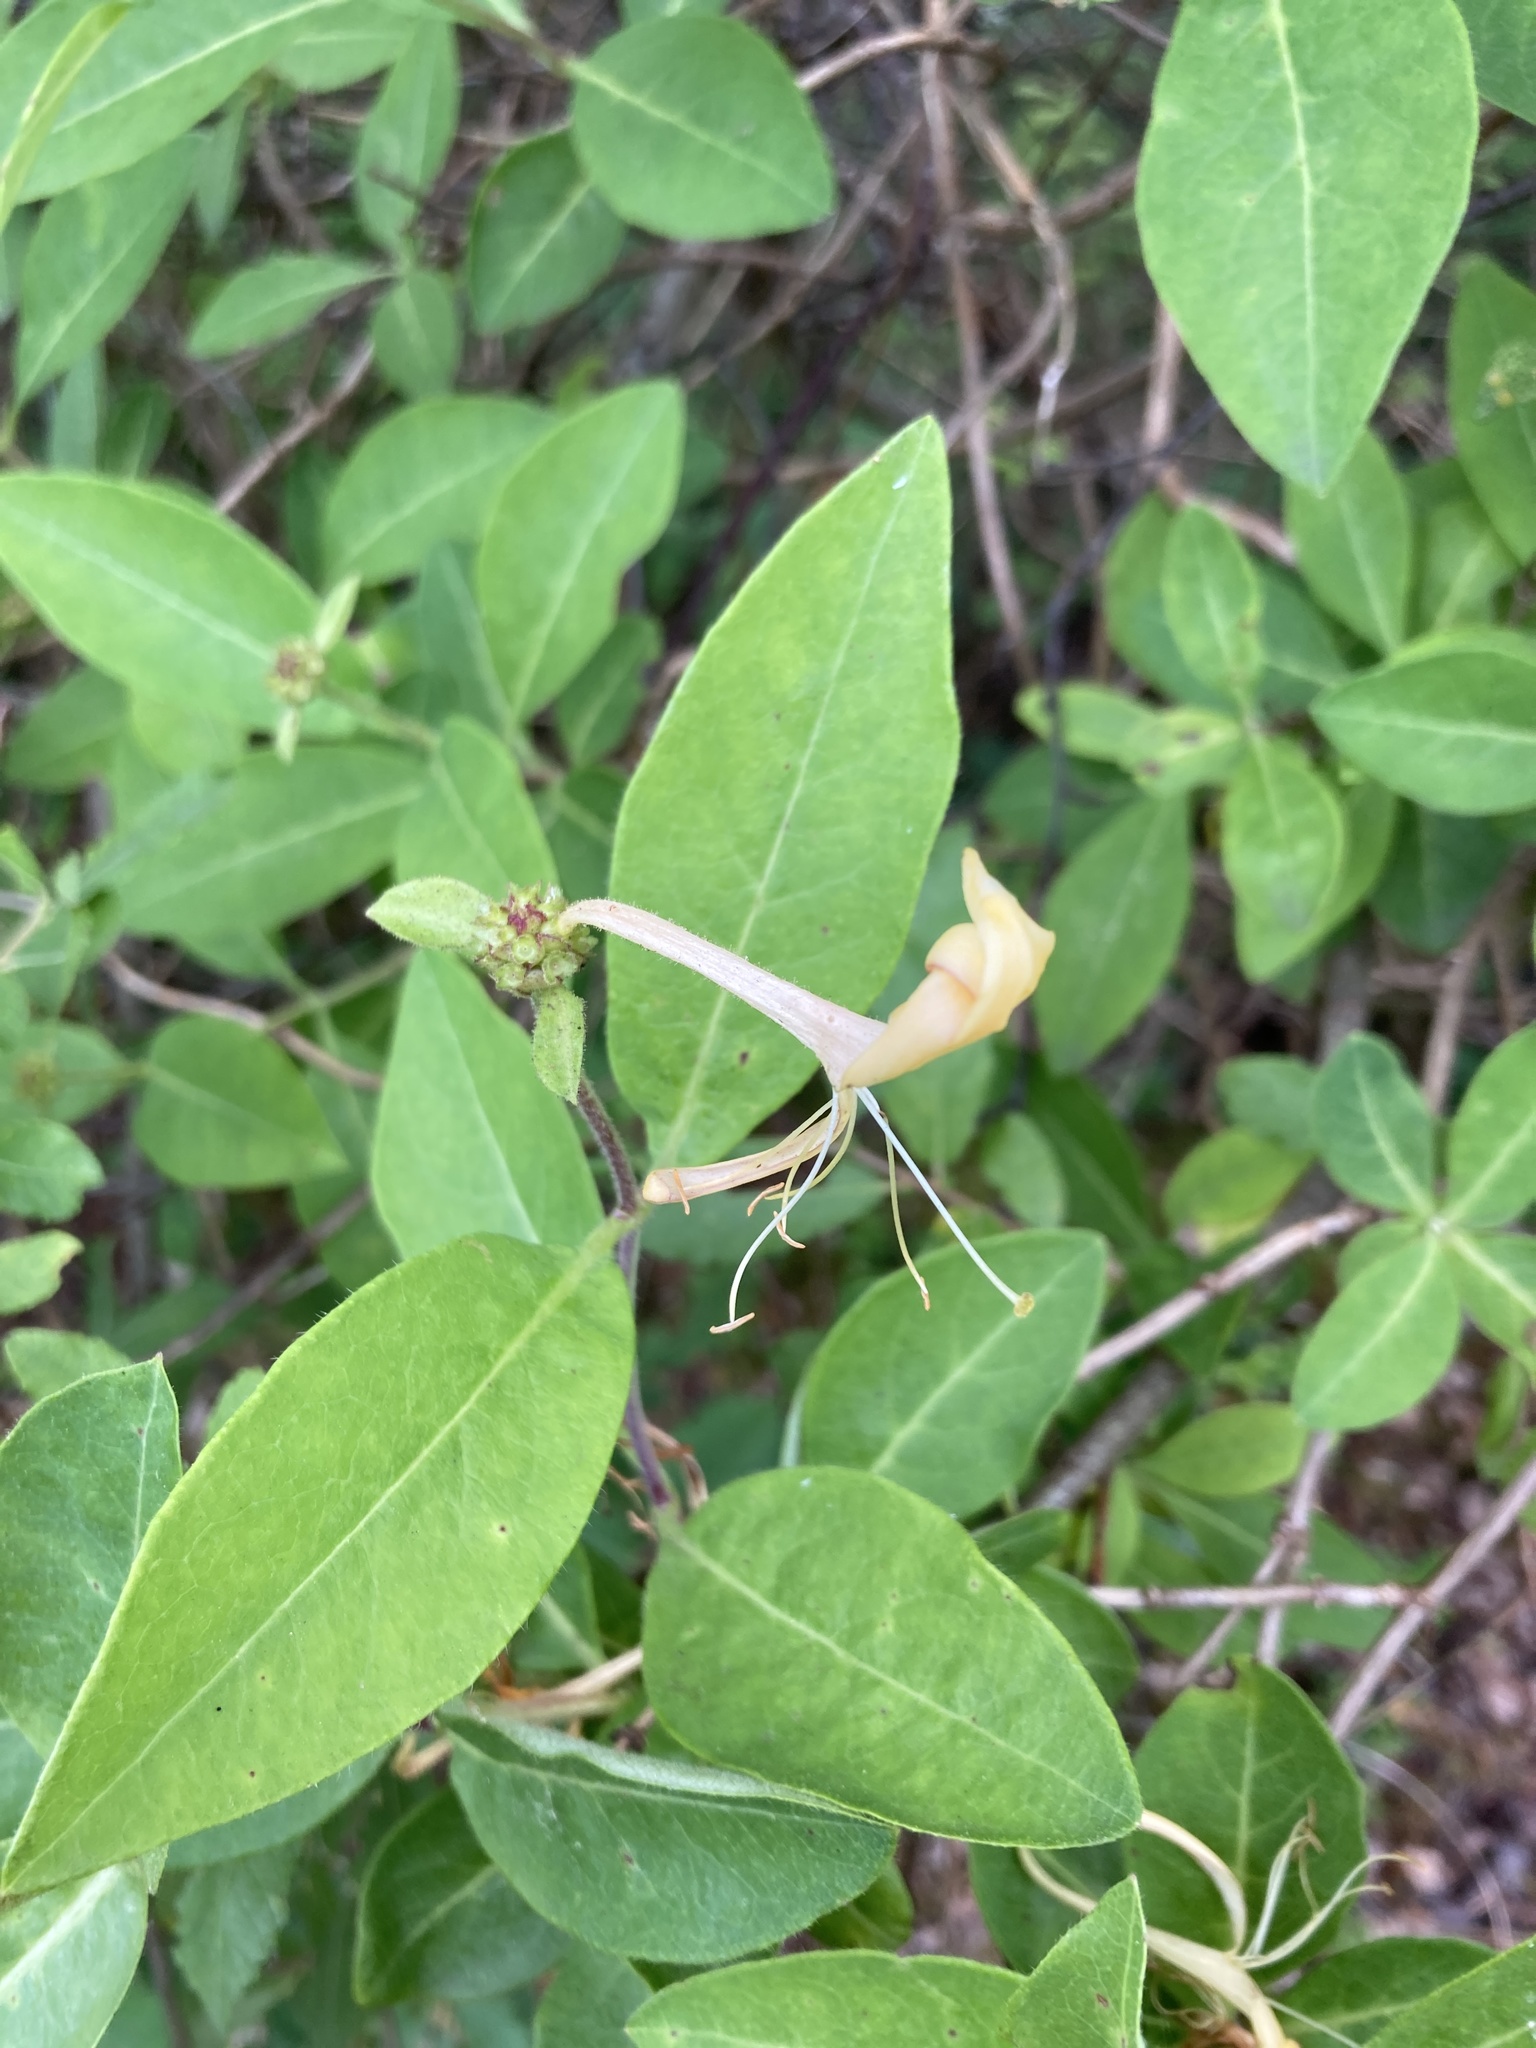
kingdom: Plantae
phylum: Tracheophyta
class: Magnoliopsida
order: Dipsacales
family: Caprifoliaceae
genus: Lonicera
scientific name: Lonicera periclymenum
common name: European honeysuckle
